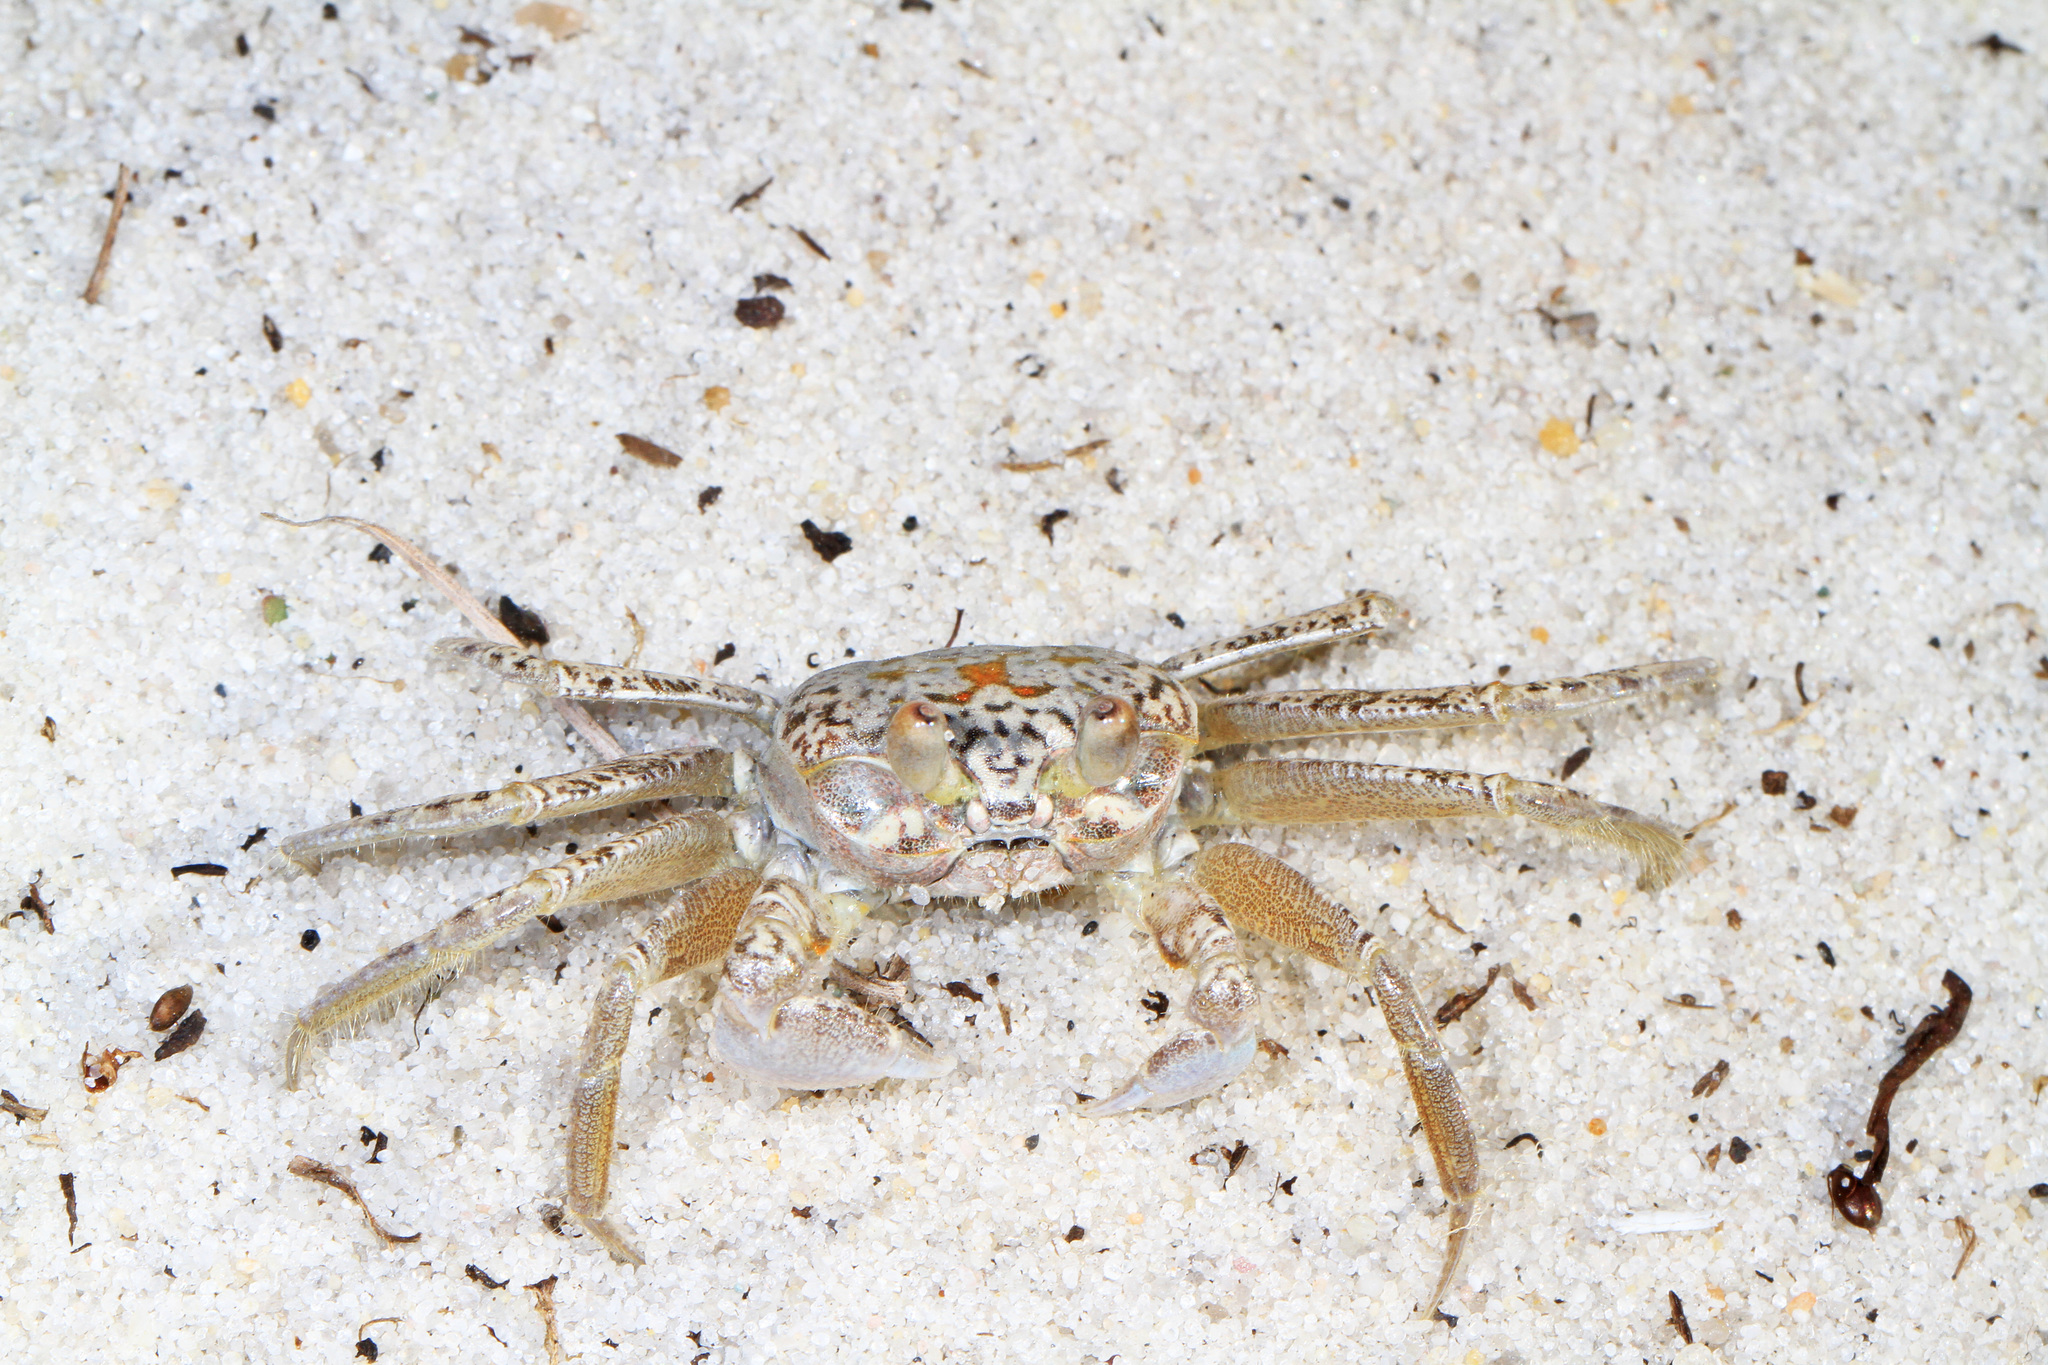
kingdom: Animalia
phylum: Arthropoda
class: Malacostraca
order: Decapoda
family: Ocypodidae
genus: Ocypode
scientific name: Ocypode quadrata
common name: Ghost crab
